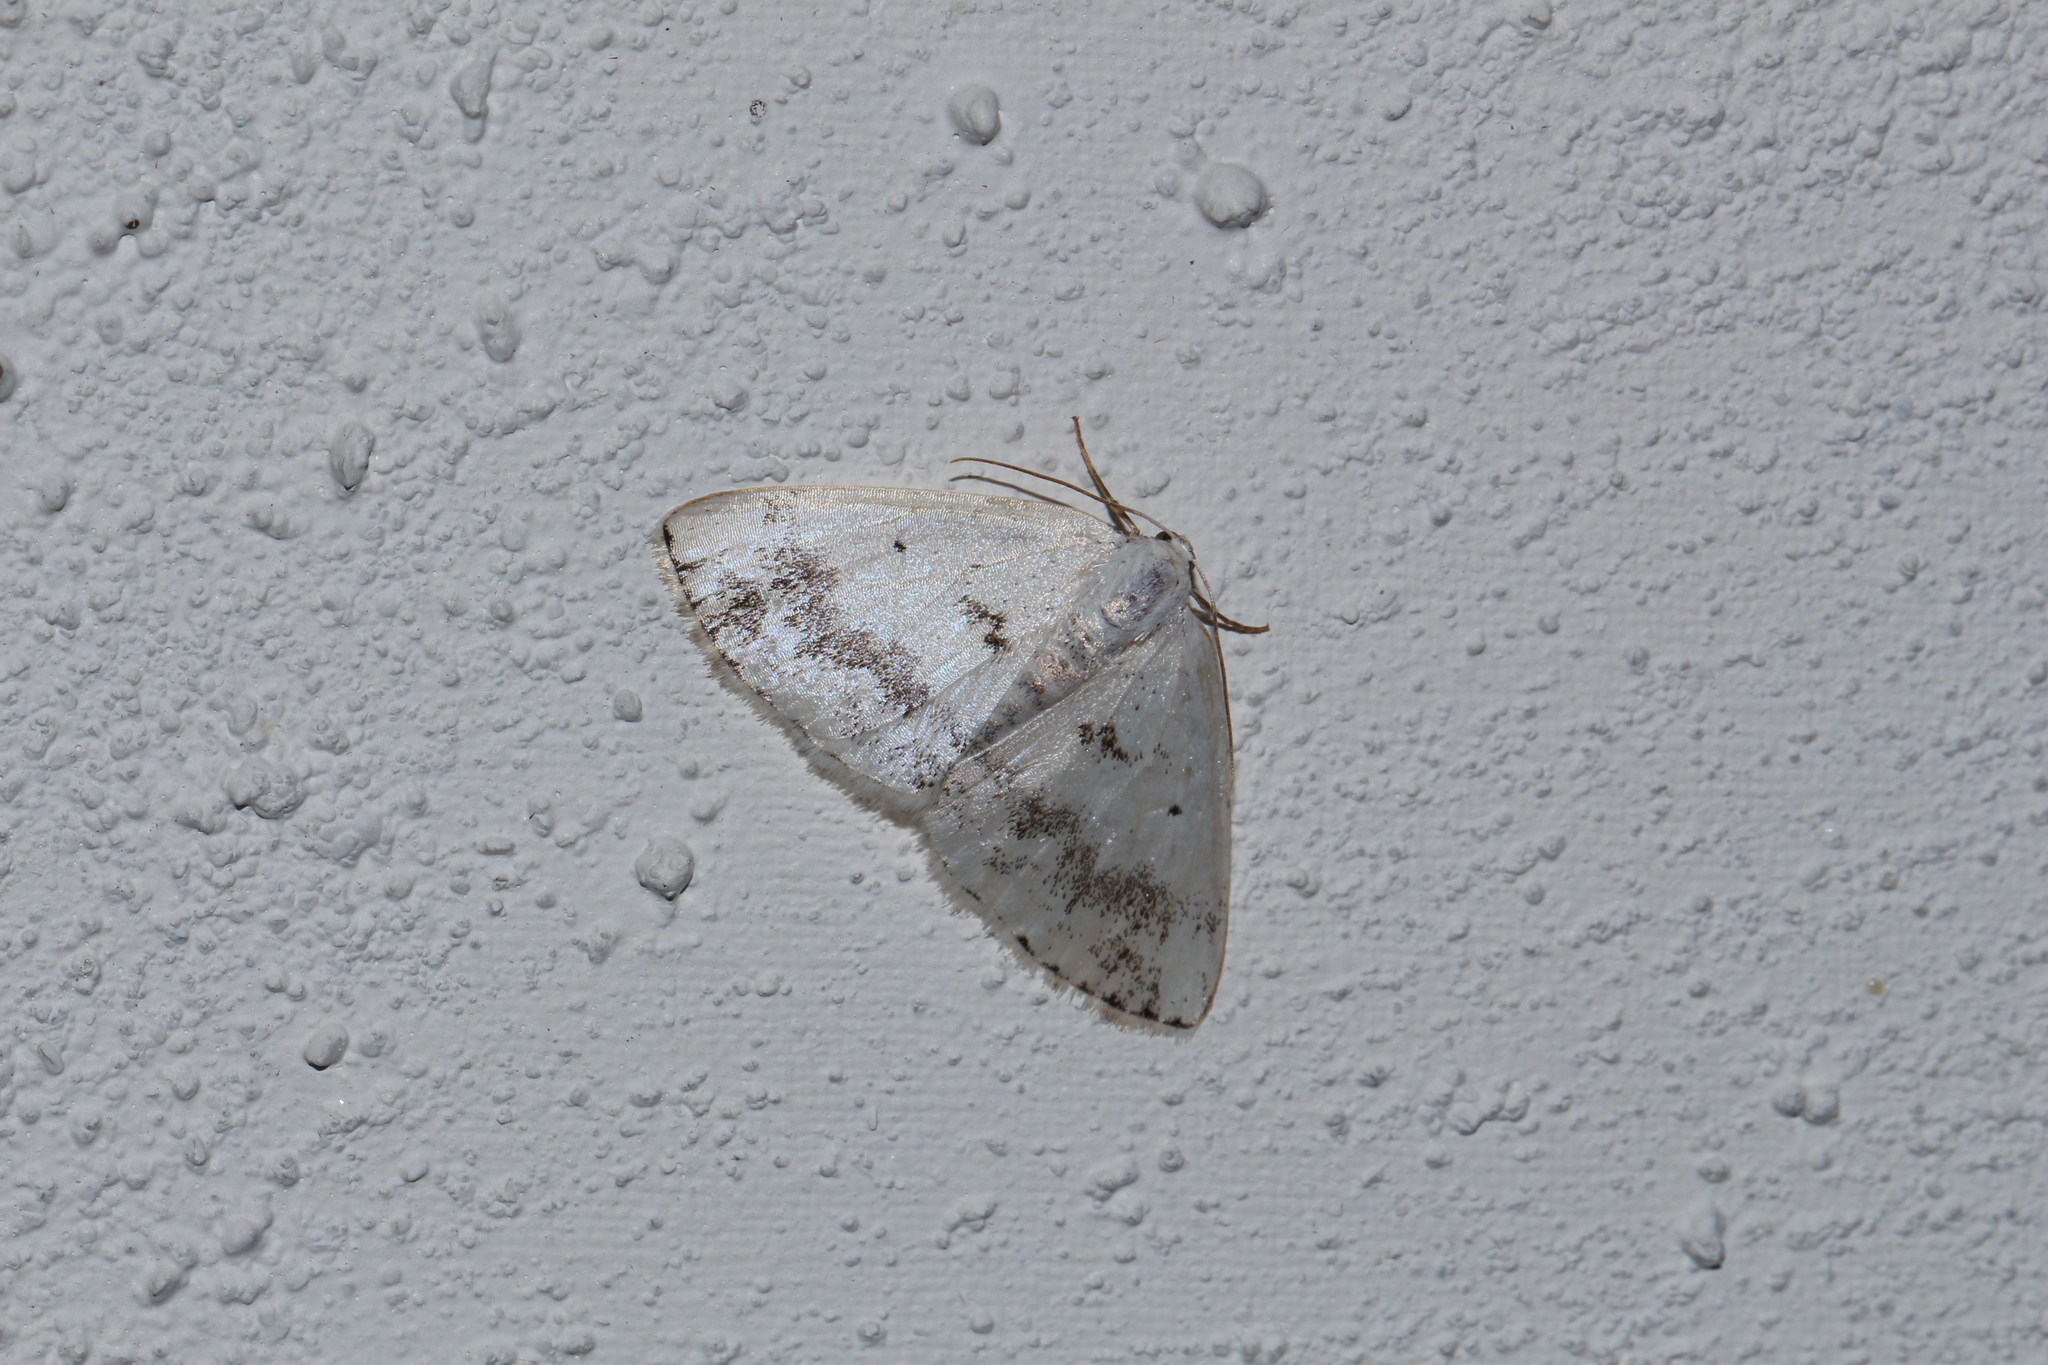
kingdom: Animalia
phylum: Arthropoda
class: Insecta
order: Lepidoptera
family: Geometridae
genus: Lomographa
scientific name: Lomographa temerata
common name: Clouded silver
